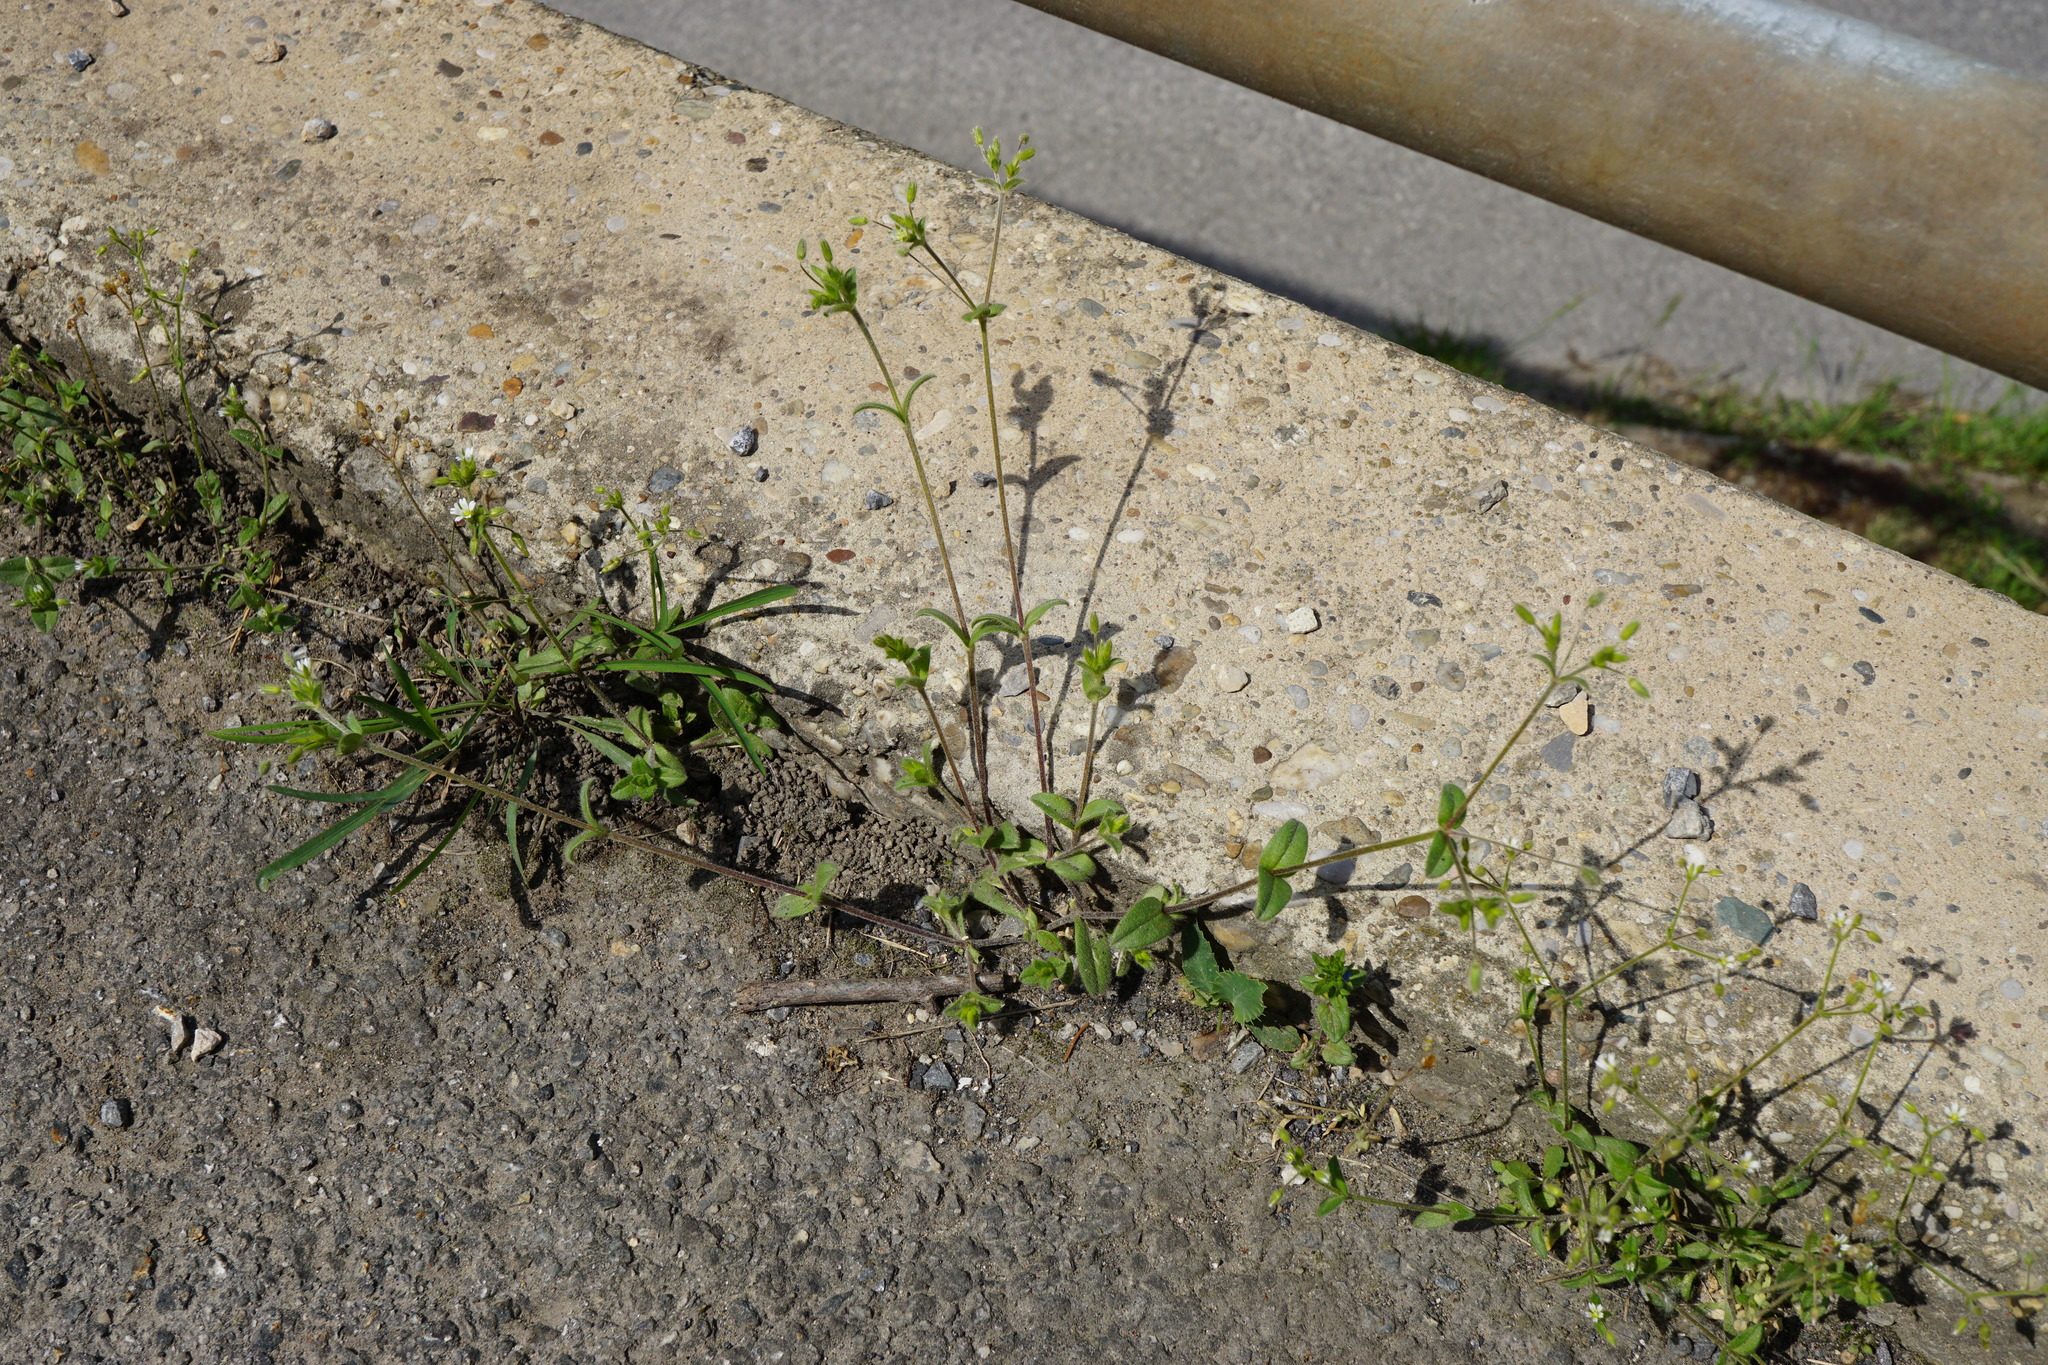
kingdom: Plantae
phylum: Tracheophyta
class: Magnoliopsida
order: Caryophyllales
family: Caryophyllaceae
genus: Cerastium
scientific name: Cerastium tenoreanum
